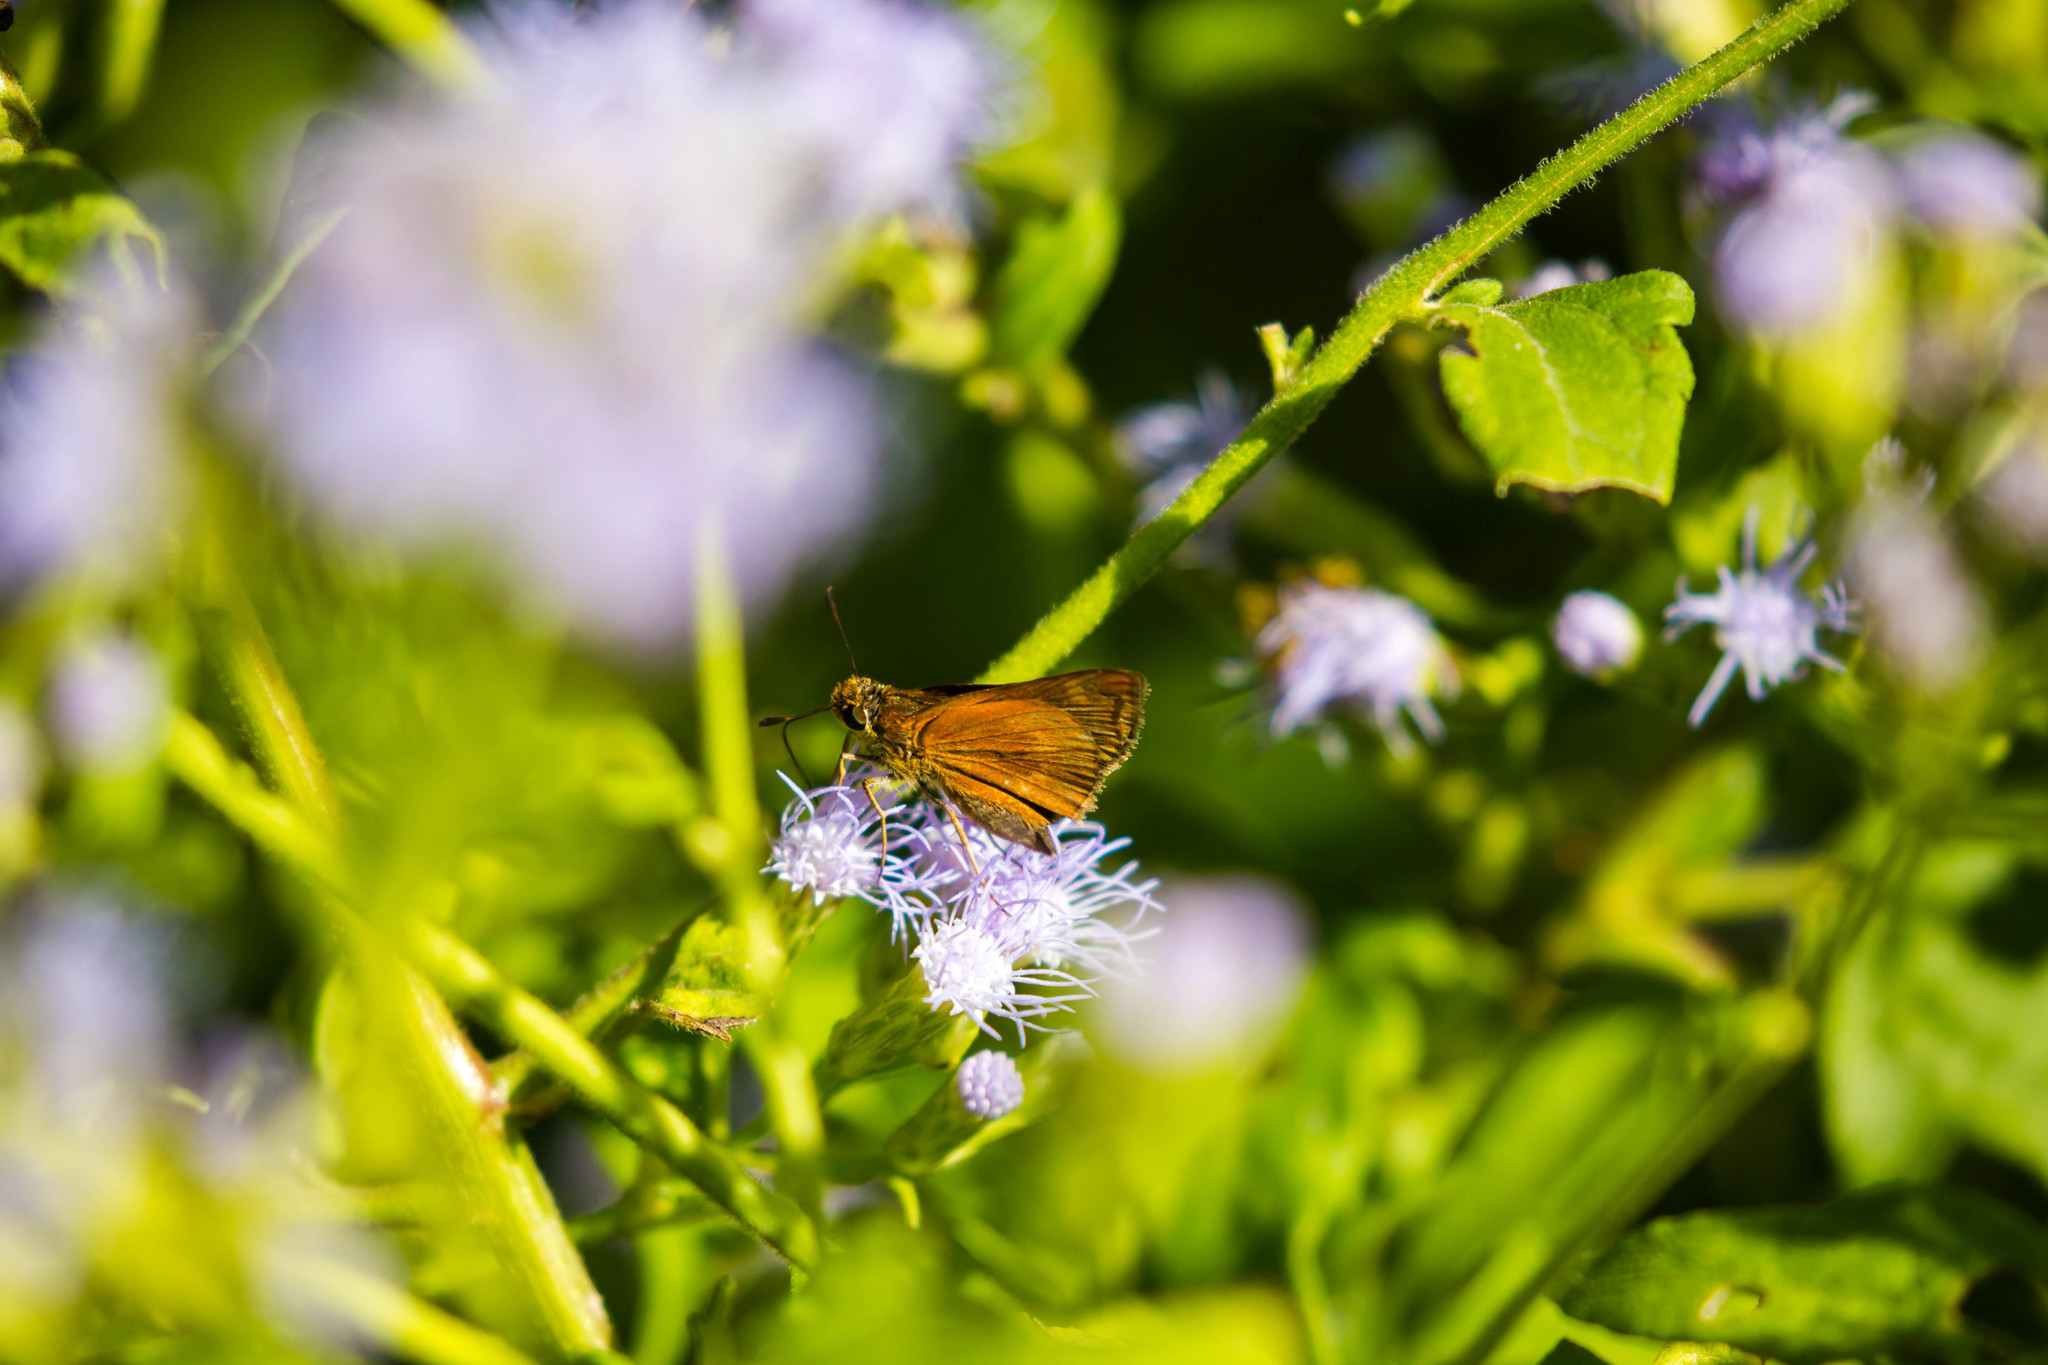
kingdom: Animalia
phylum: Arthropoda
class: Insecta
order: Lepidoptera
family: Hesperiidae
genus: Polites
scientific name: Polites otho
